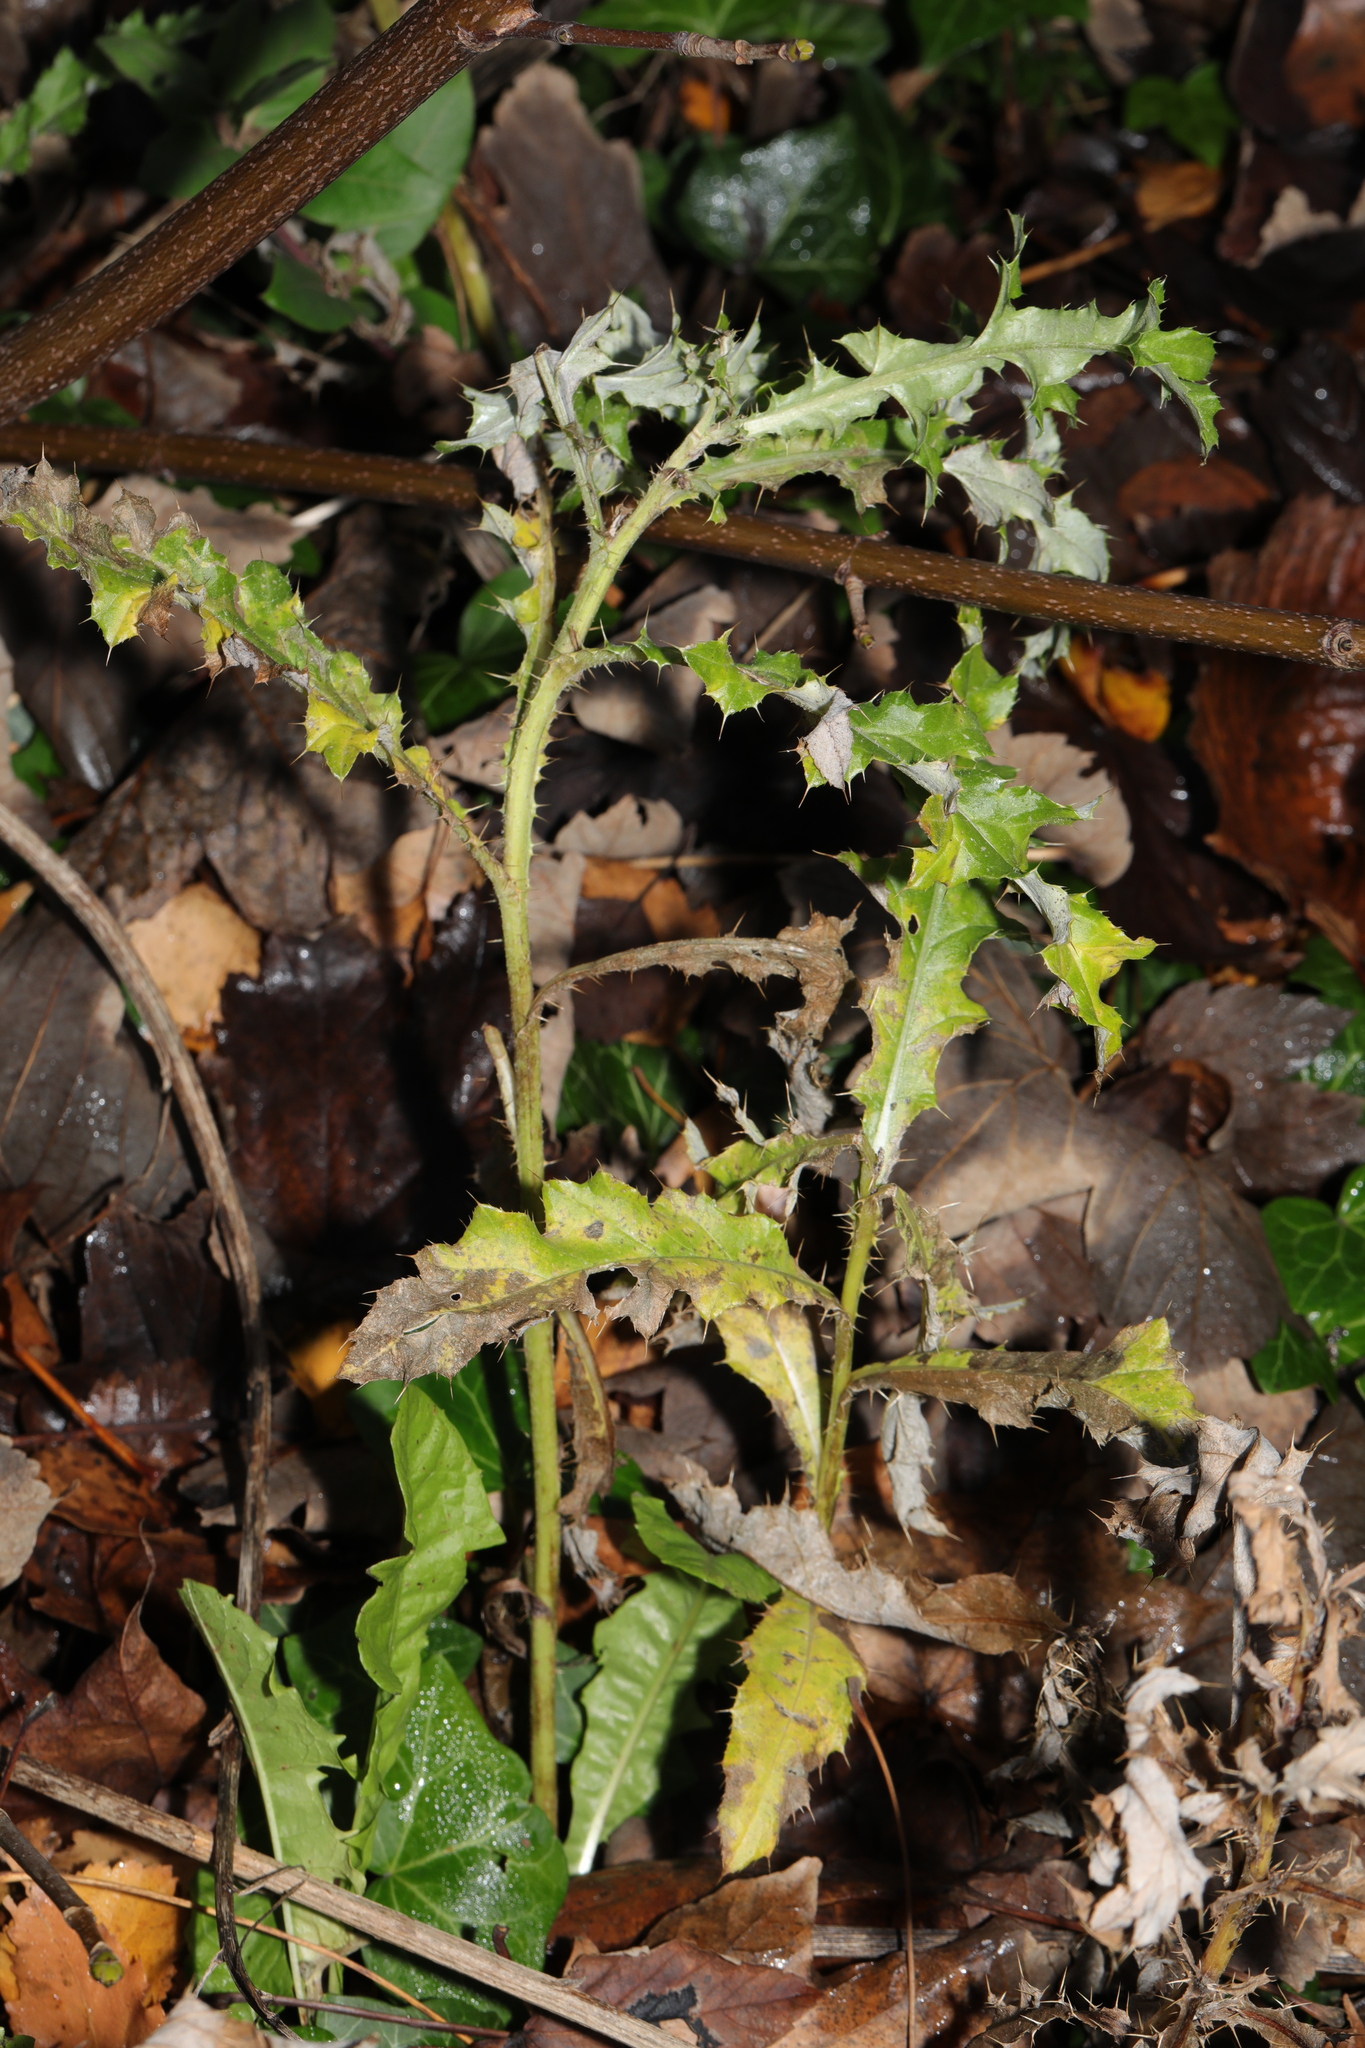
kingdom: Plantae
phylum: Tracheophyta
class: Magnoliopsida
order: Asterales
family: Asteraceae
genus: Cirsium
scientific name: Cirsium arvense
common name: Creeping thistle
